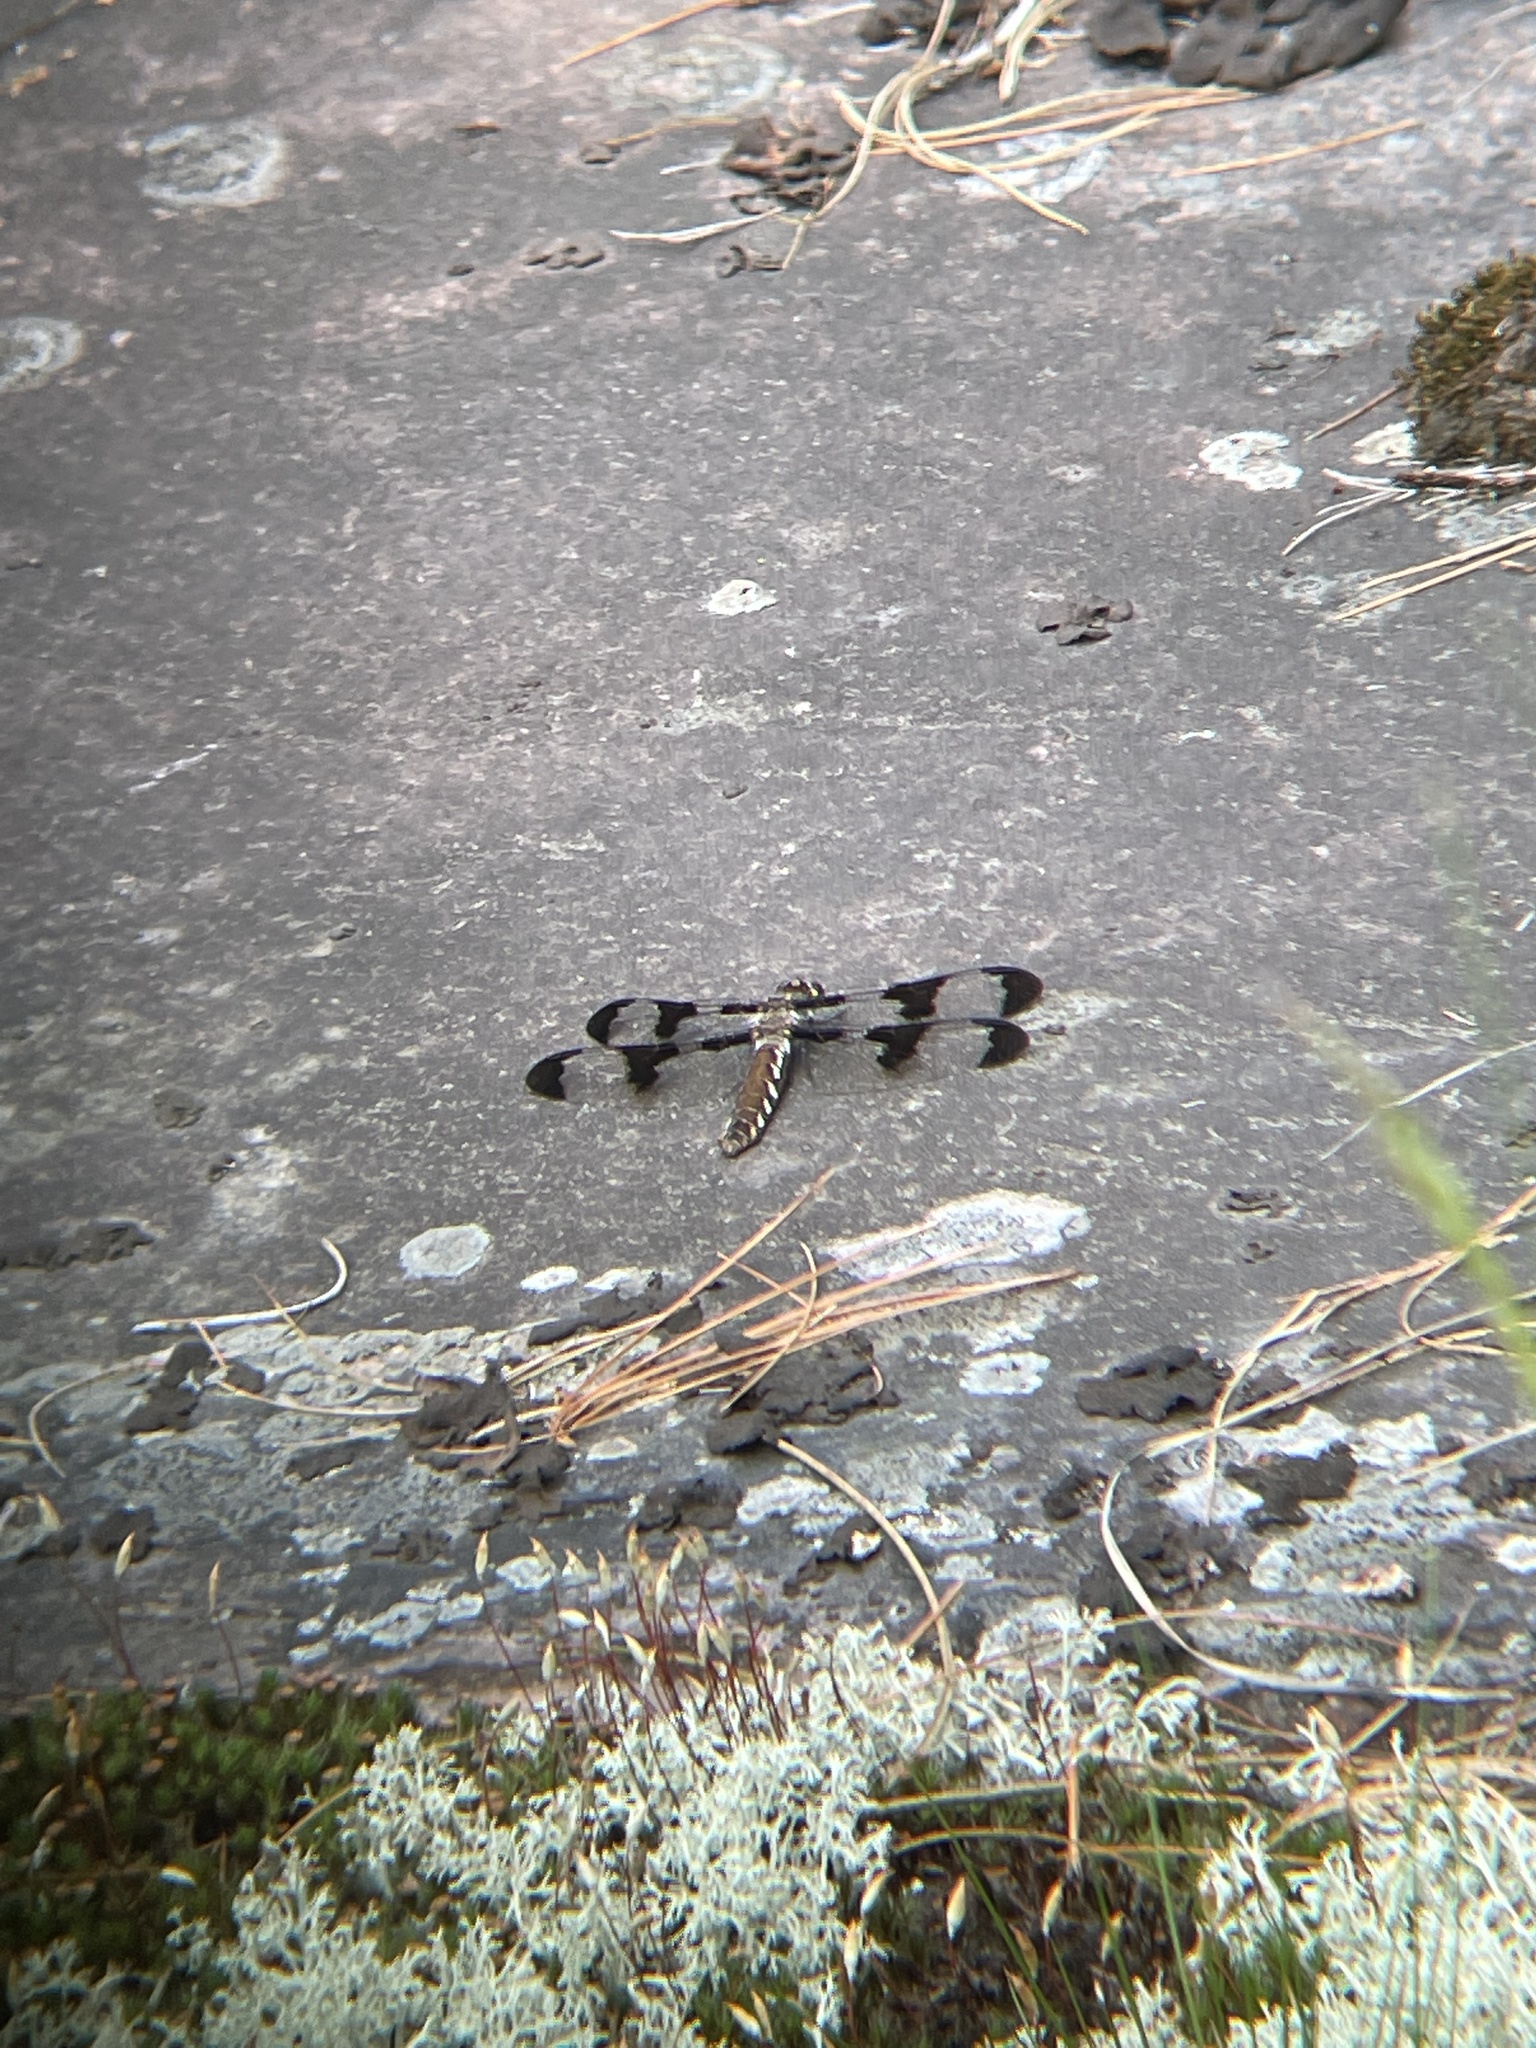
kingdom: Animalia
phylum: Arthropoda
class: Insecta
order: Odonata
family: Libellulidae
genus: Plathemis
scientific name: Plathemis lydia
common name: Common whitetail
